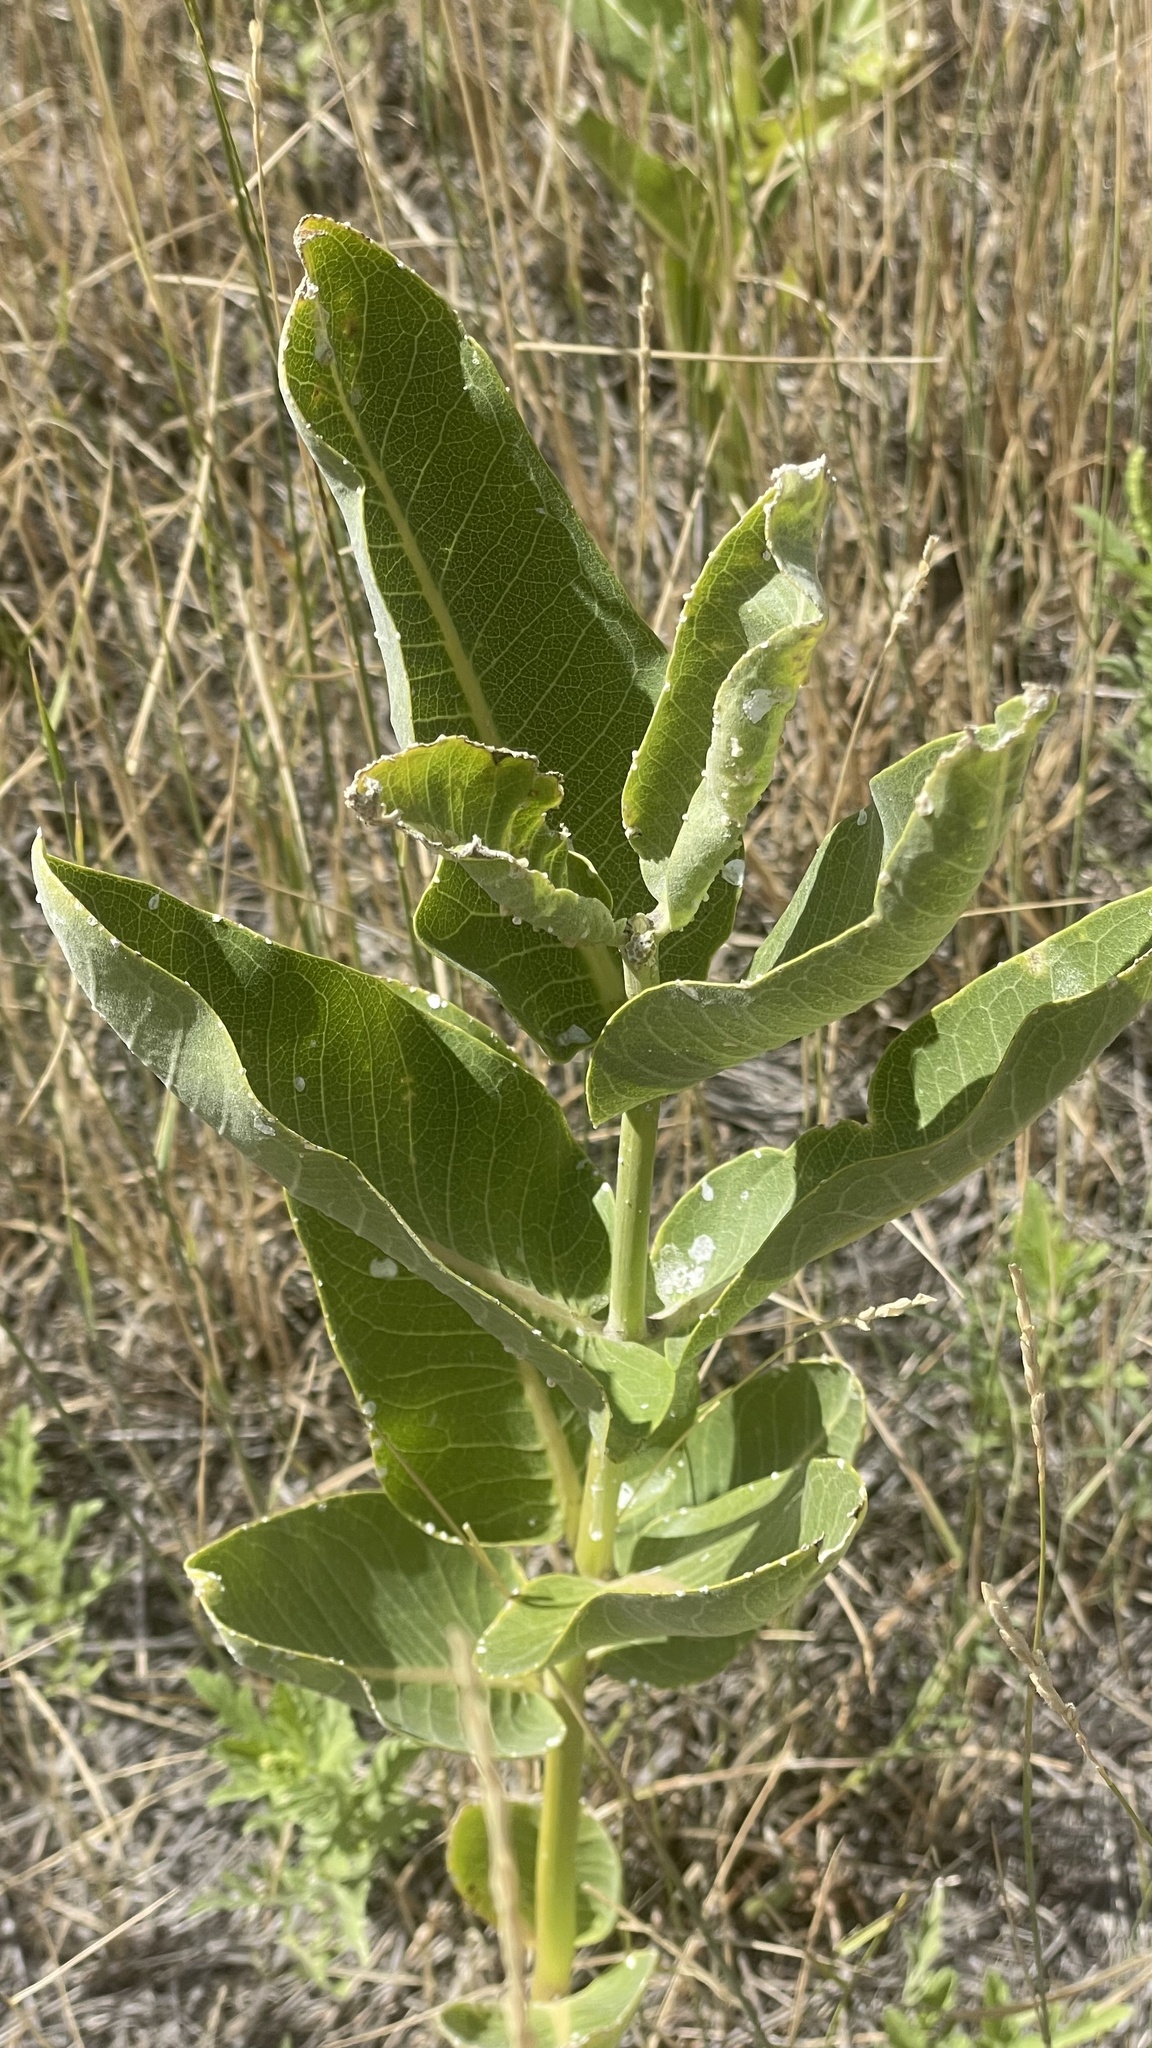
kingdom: Plantae
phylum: Tracheophyta
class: Magnoliopsida
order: Gentianales
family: Apocynaceae
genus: Asclepias
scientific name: Asclepias speciosa
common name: Showy milkweed
